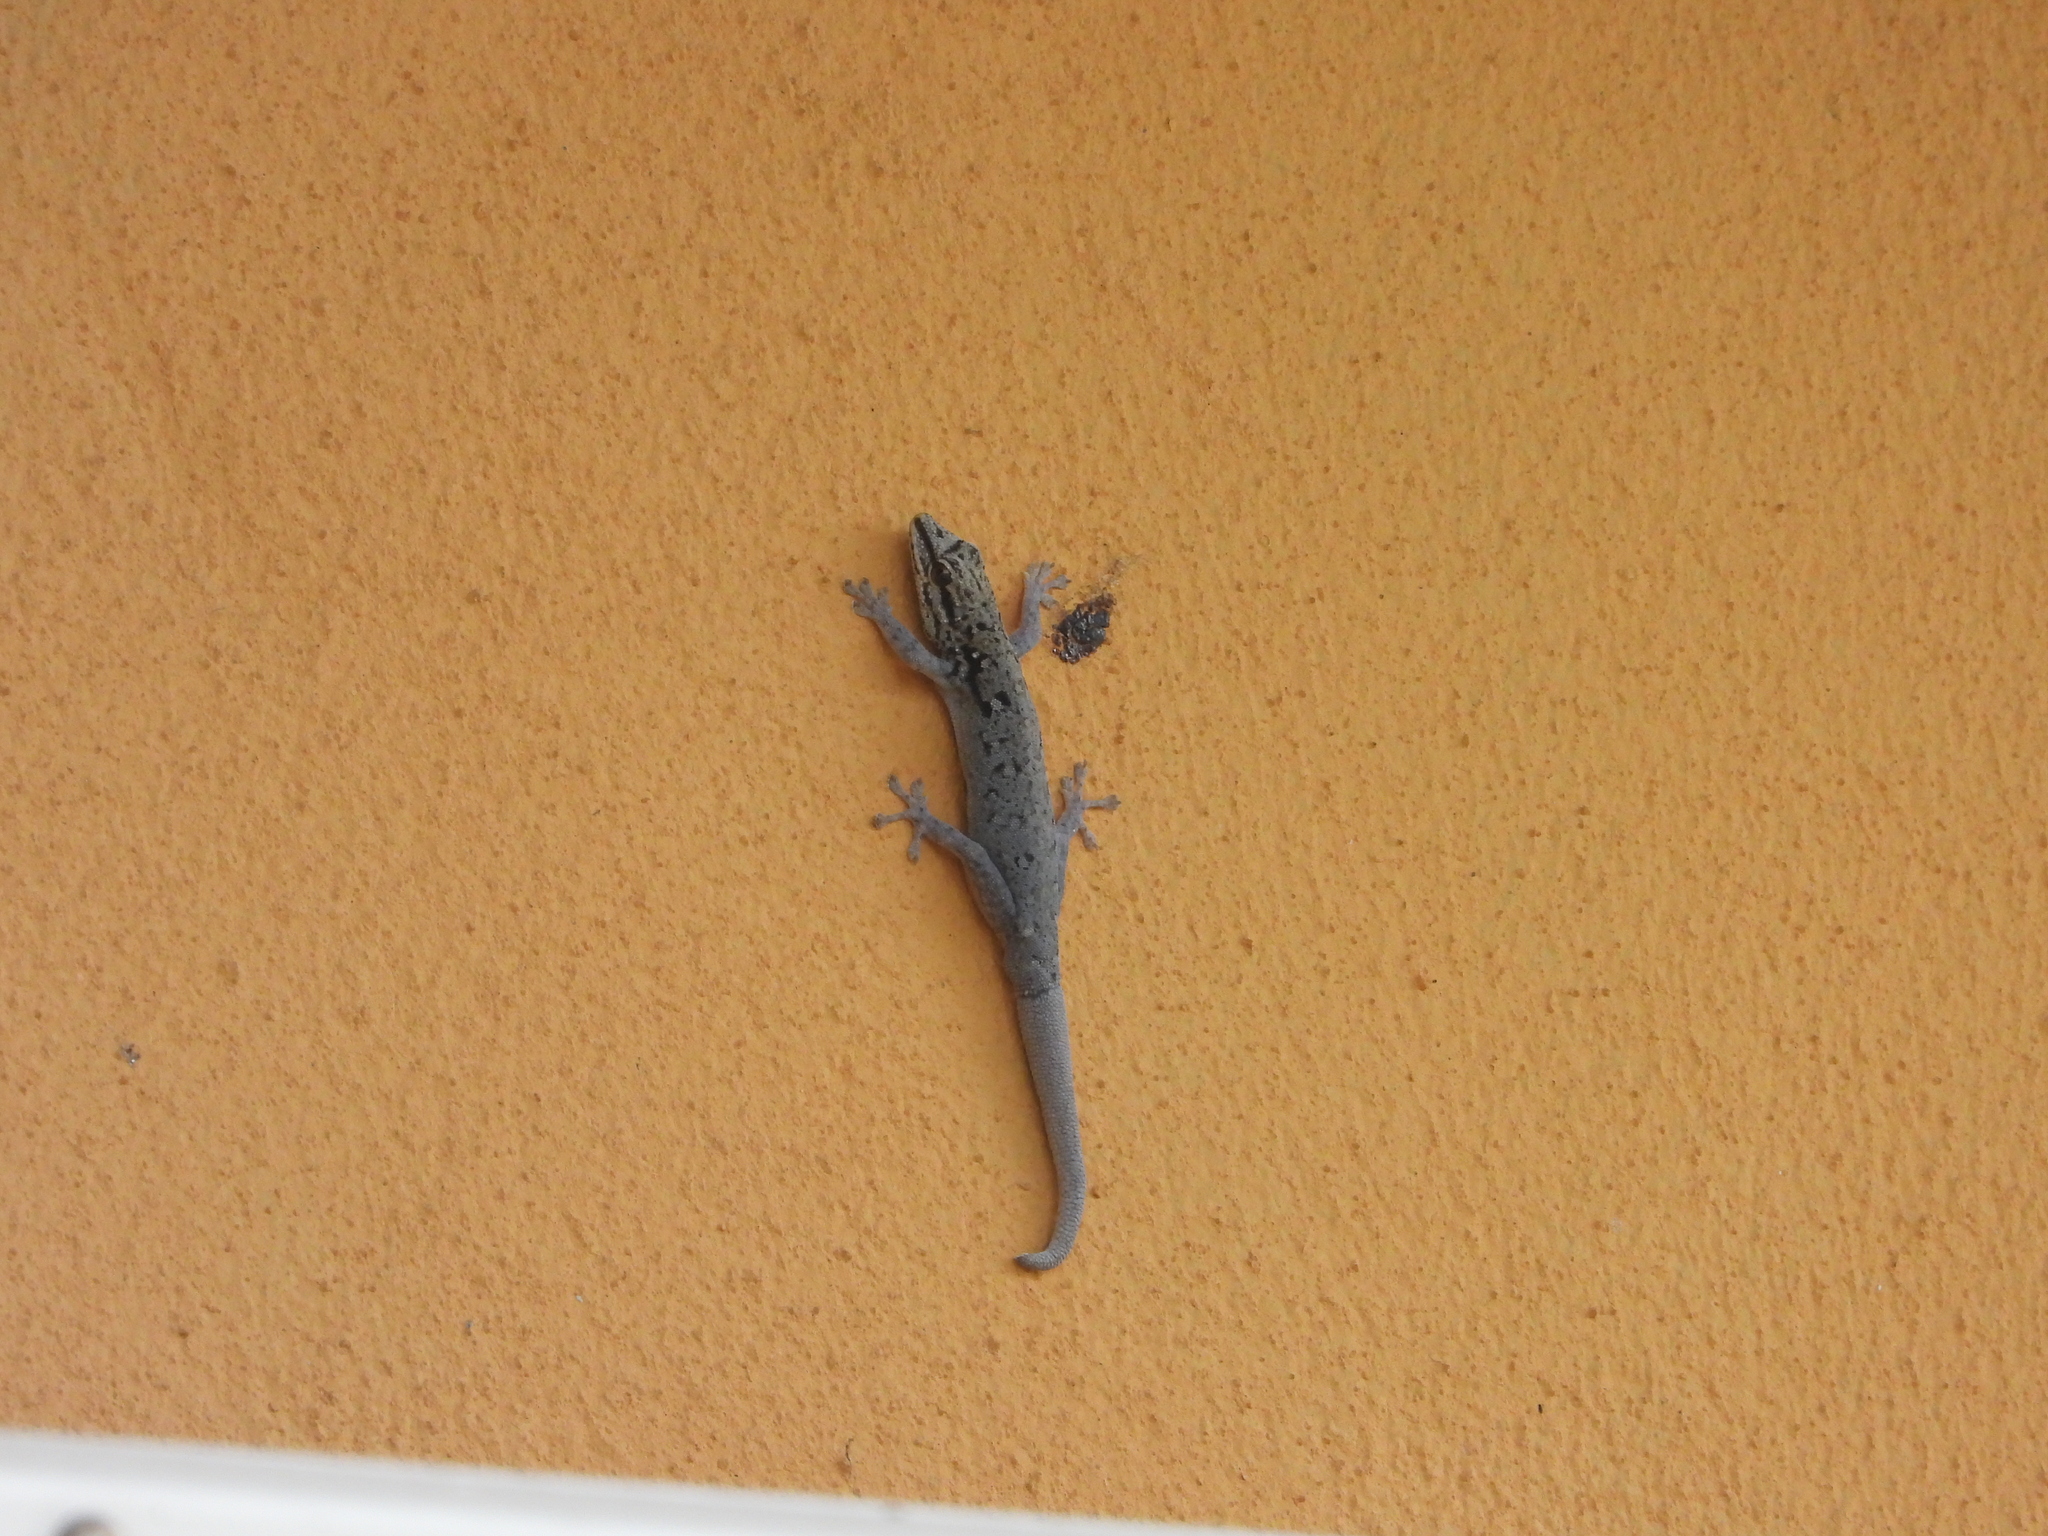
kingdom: Animalia
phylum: Chordata
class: Squamata
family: Gekkonidae
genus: Lygodactylus
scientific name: Lygodactylus chobiensis
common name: Okavango dwarf gecko
